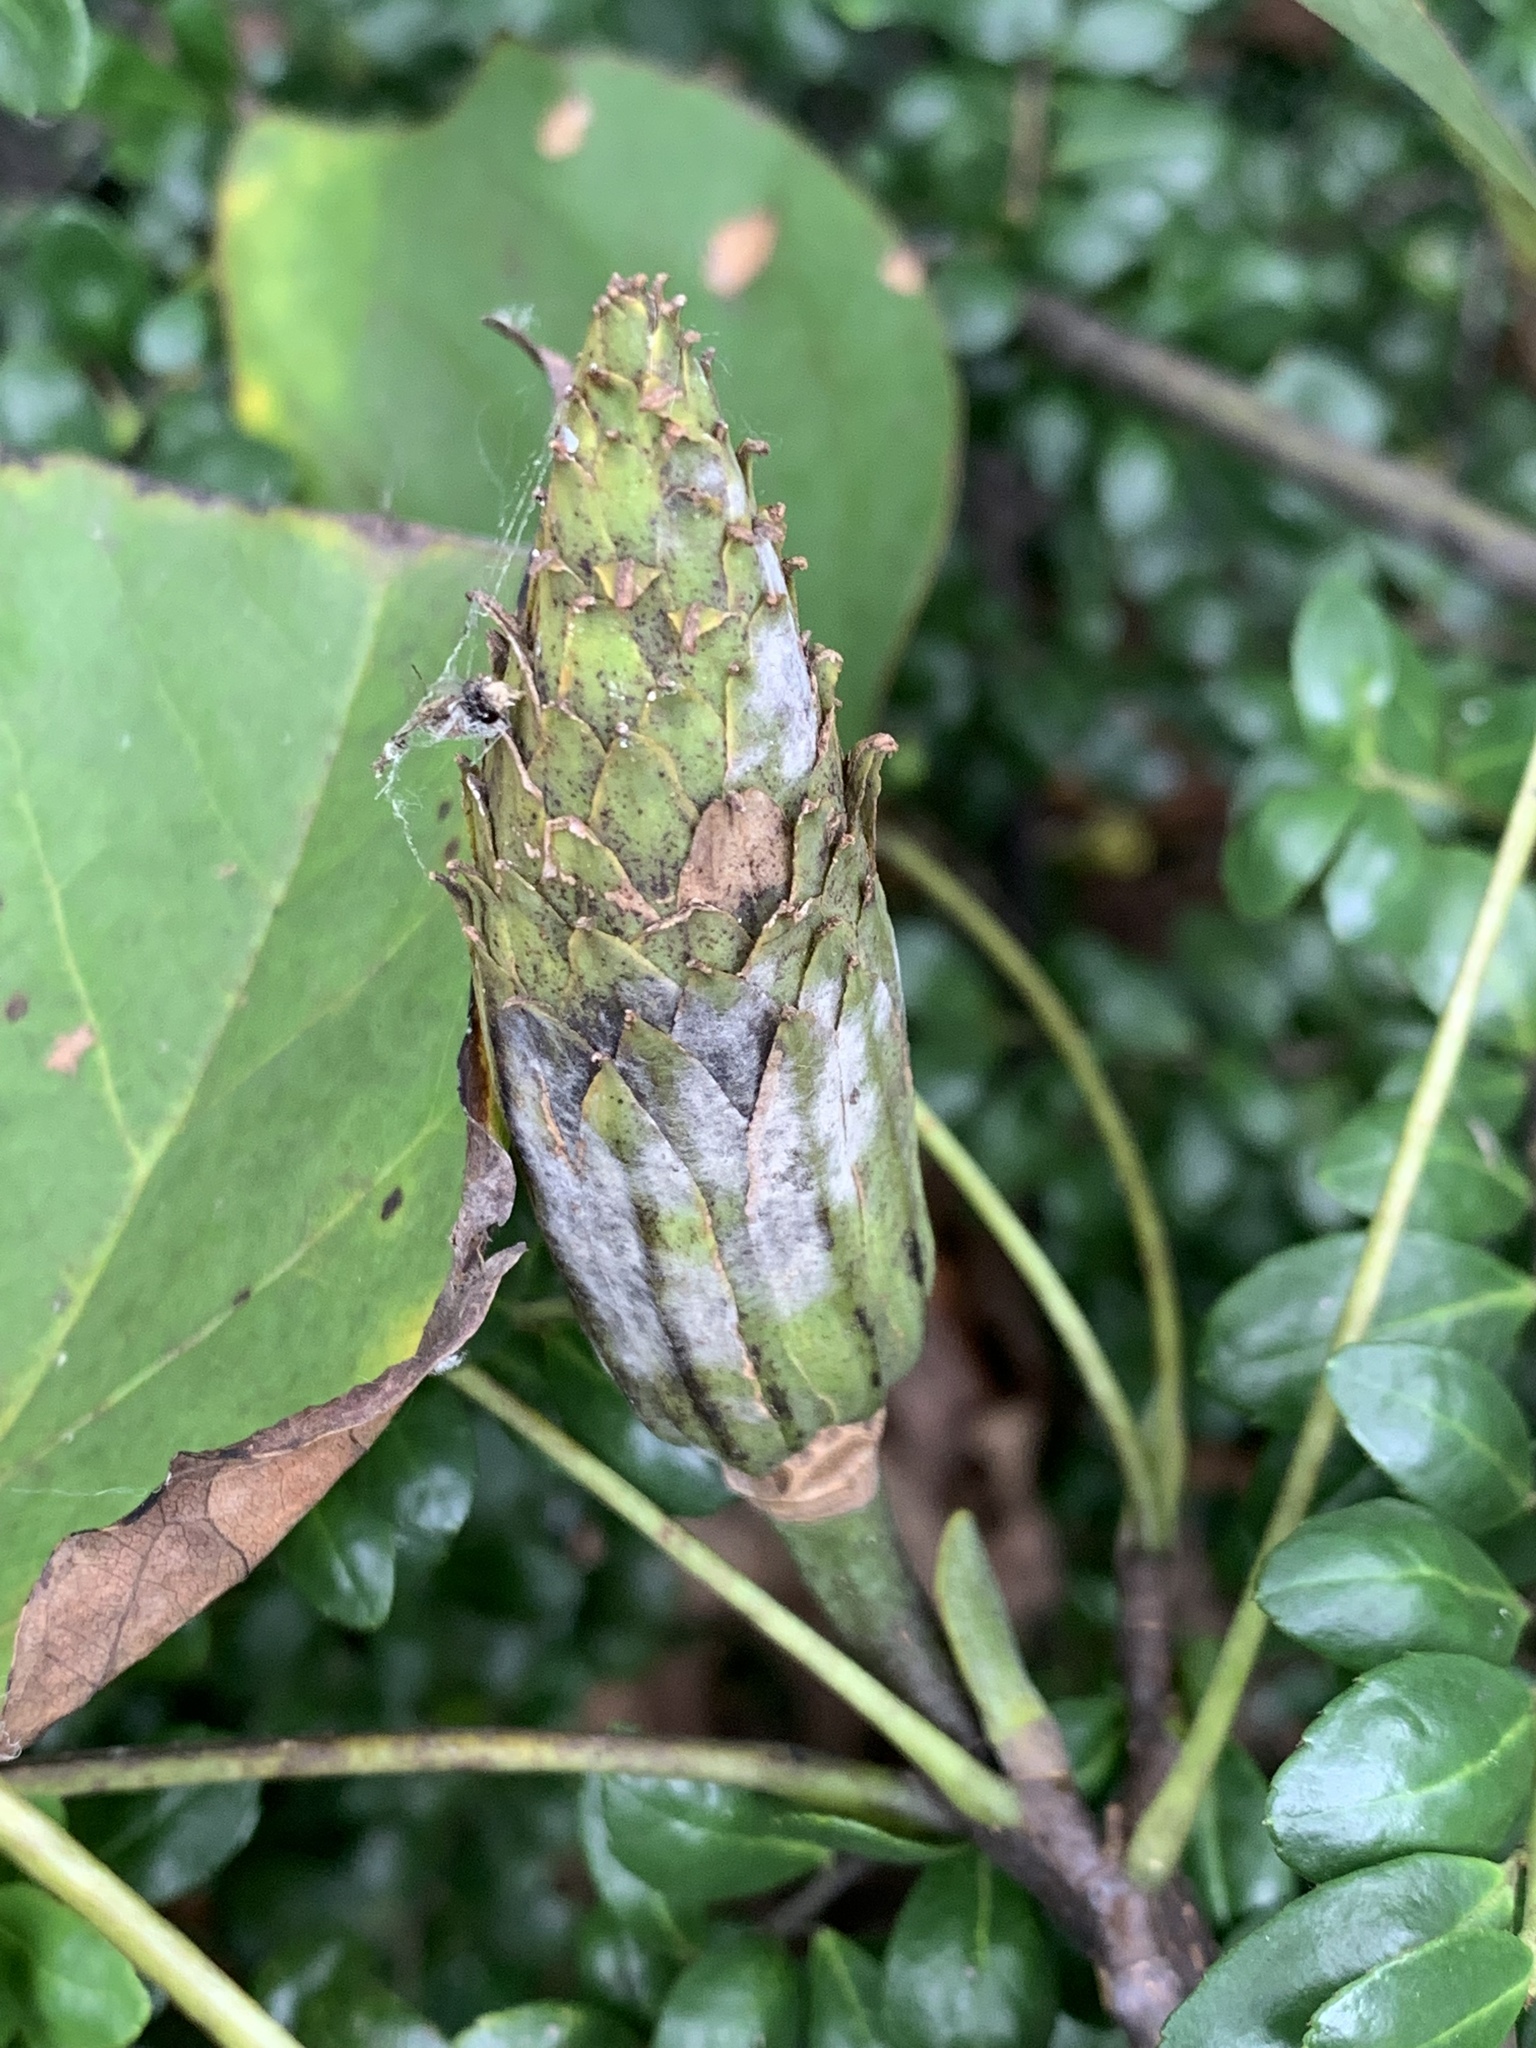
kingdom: Plantae
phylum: Tracheophyta
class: Magnoliopsida
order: Magnoliales
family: Magnoliaceae
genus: Liriodendron
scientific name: Liriodendron tulipifera
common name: Tulip tree
